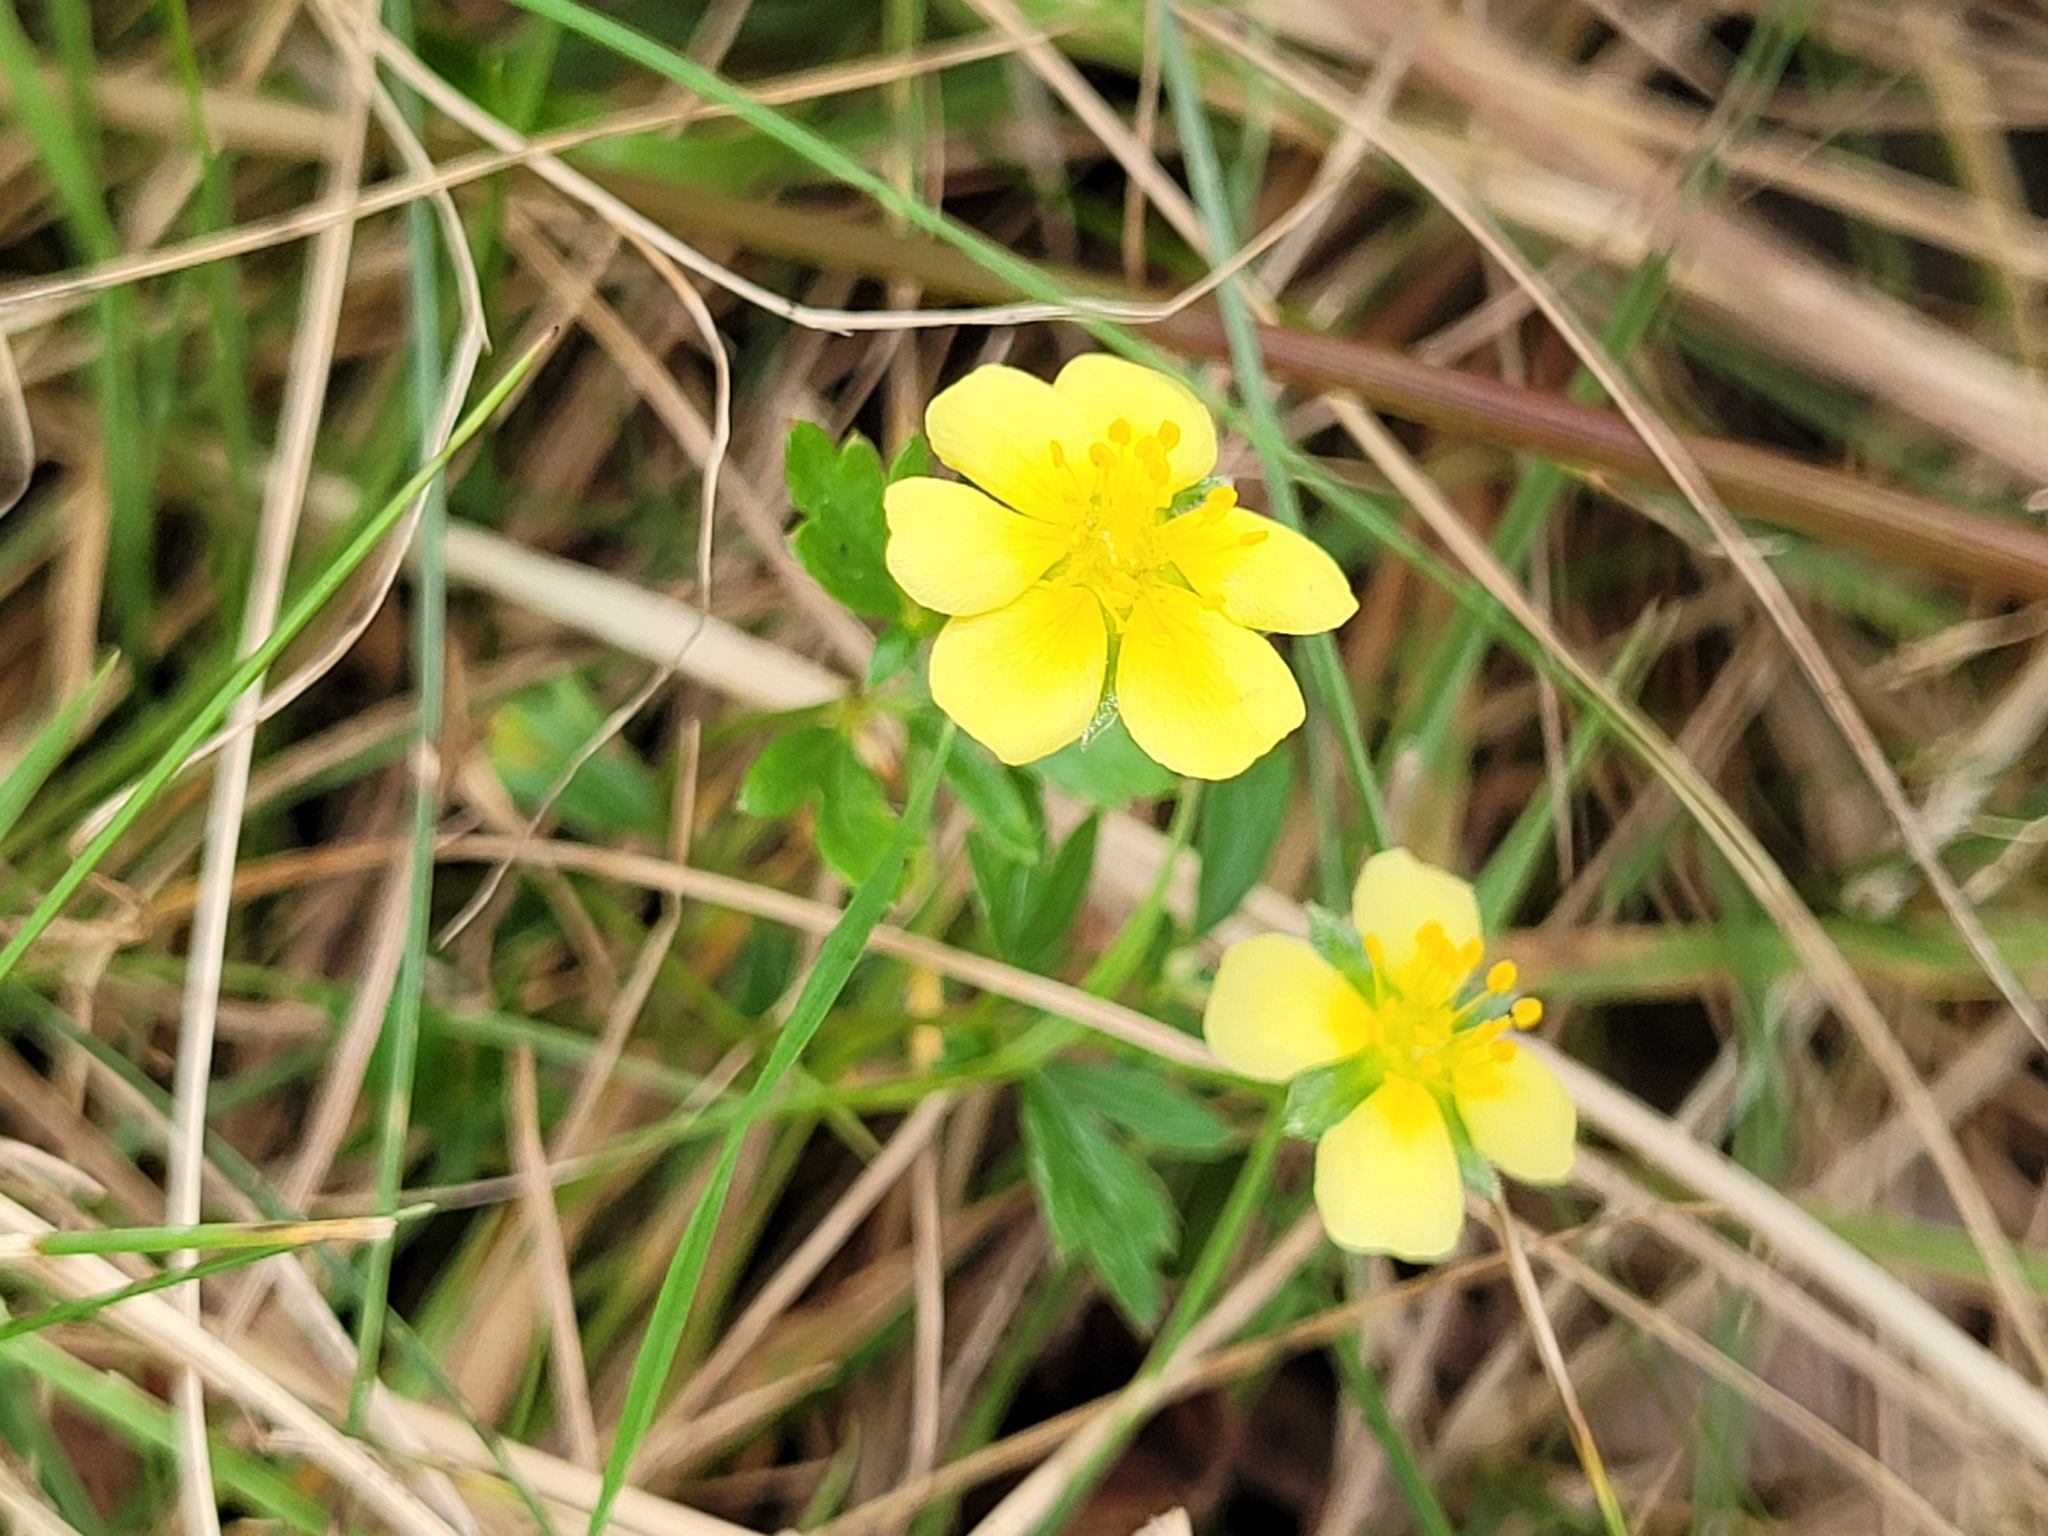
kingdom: Plantae
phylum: Tracheophyta
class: Magnoliopsida
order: Rosales
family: Rosaceae
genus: Potentilla
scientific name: Potentilla erecta
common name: Tormentil
